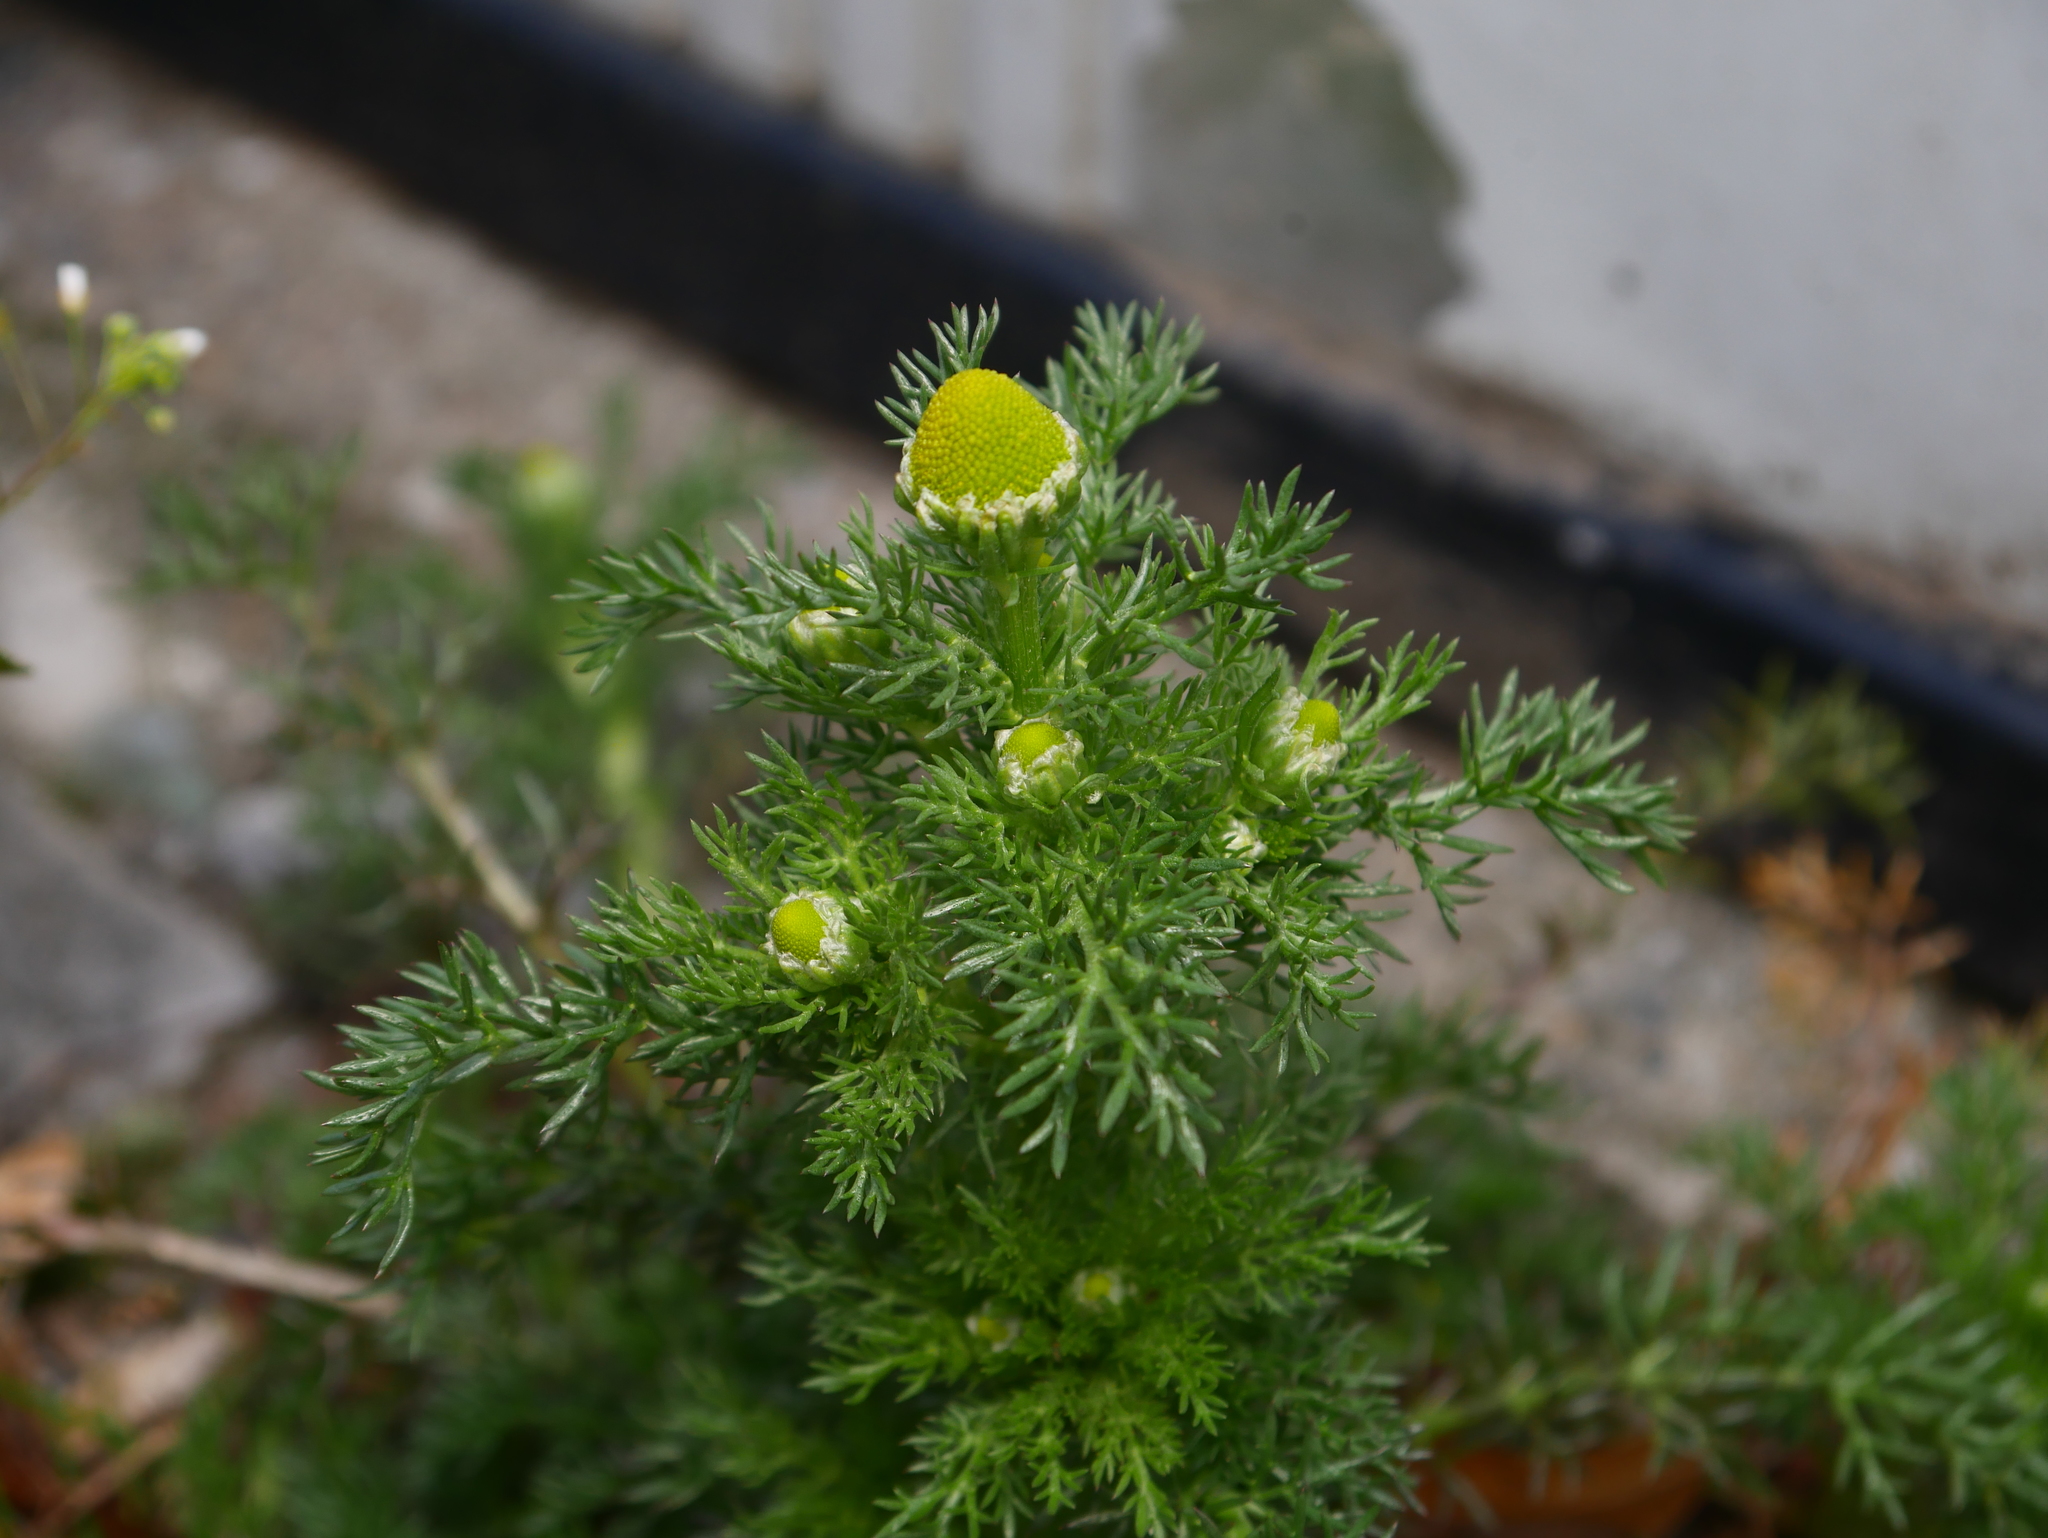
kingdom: Plantae
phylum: Tracheophyta
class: Magnoliopsida
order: Asterales
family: Asteraceae
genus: Matricaria
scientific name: Matricaria discoidea
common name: Disc mayweed
